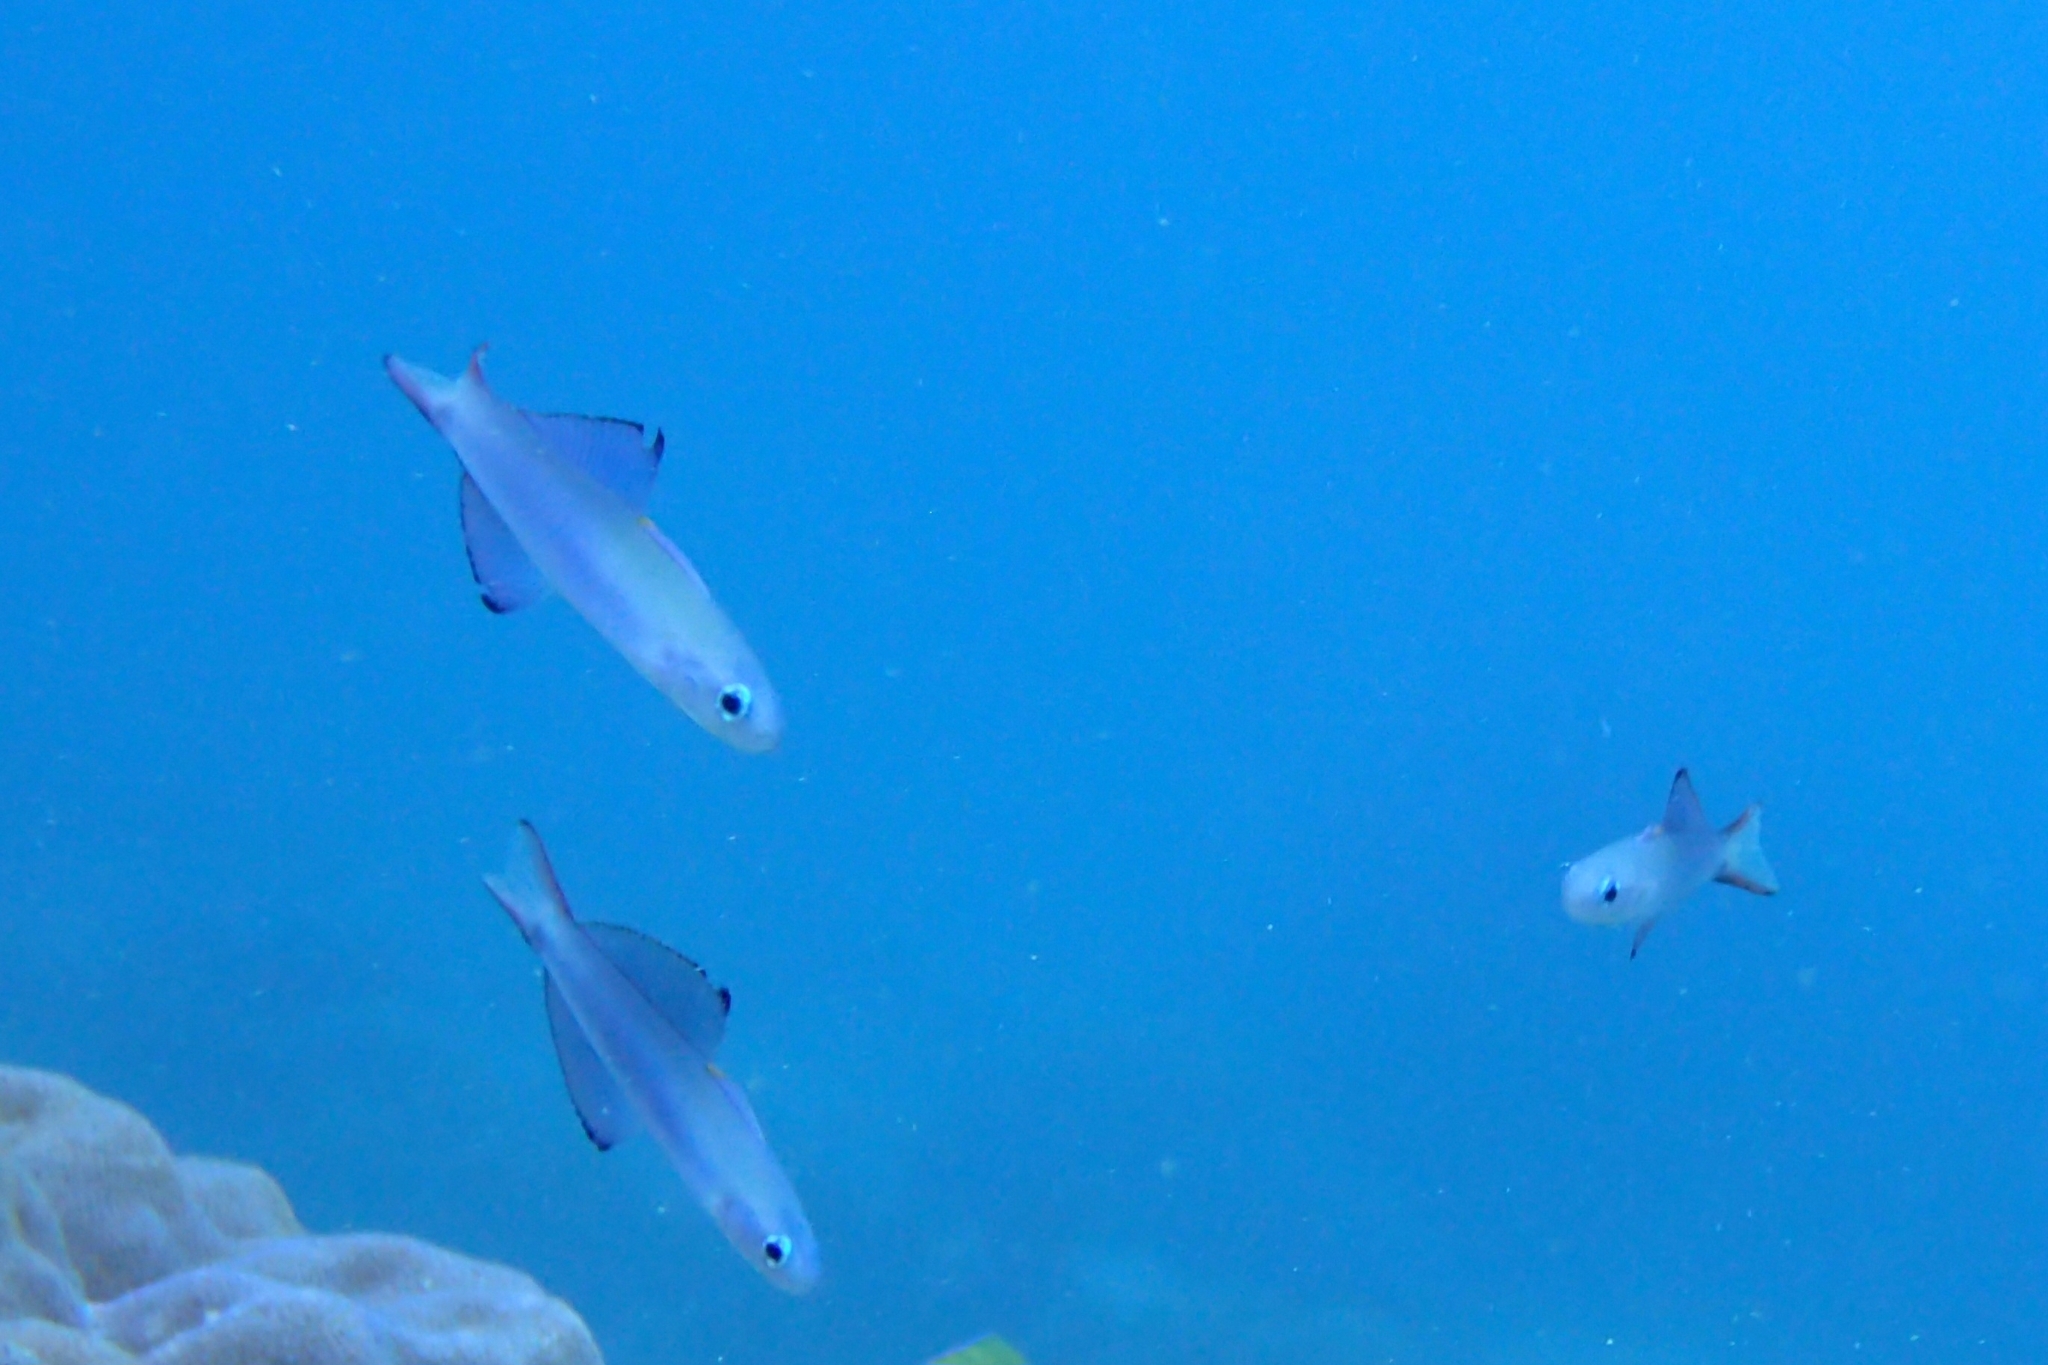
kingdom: Animalia
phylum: Chordata
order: Perciformes
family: Microdesmidae
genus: Ptereleotris
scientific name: Ptereleotris evides
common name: Blackfin dartfish
